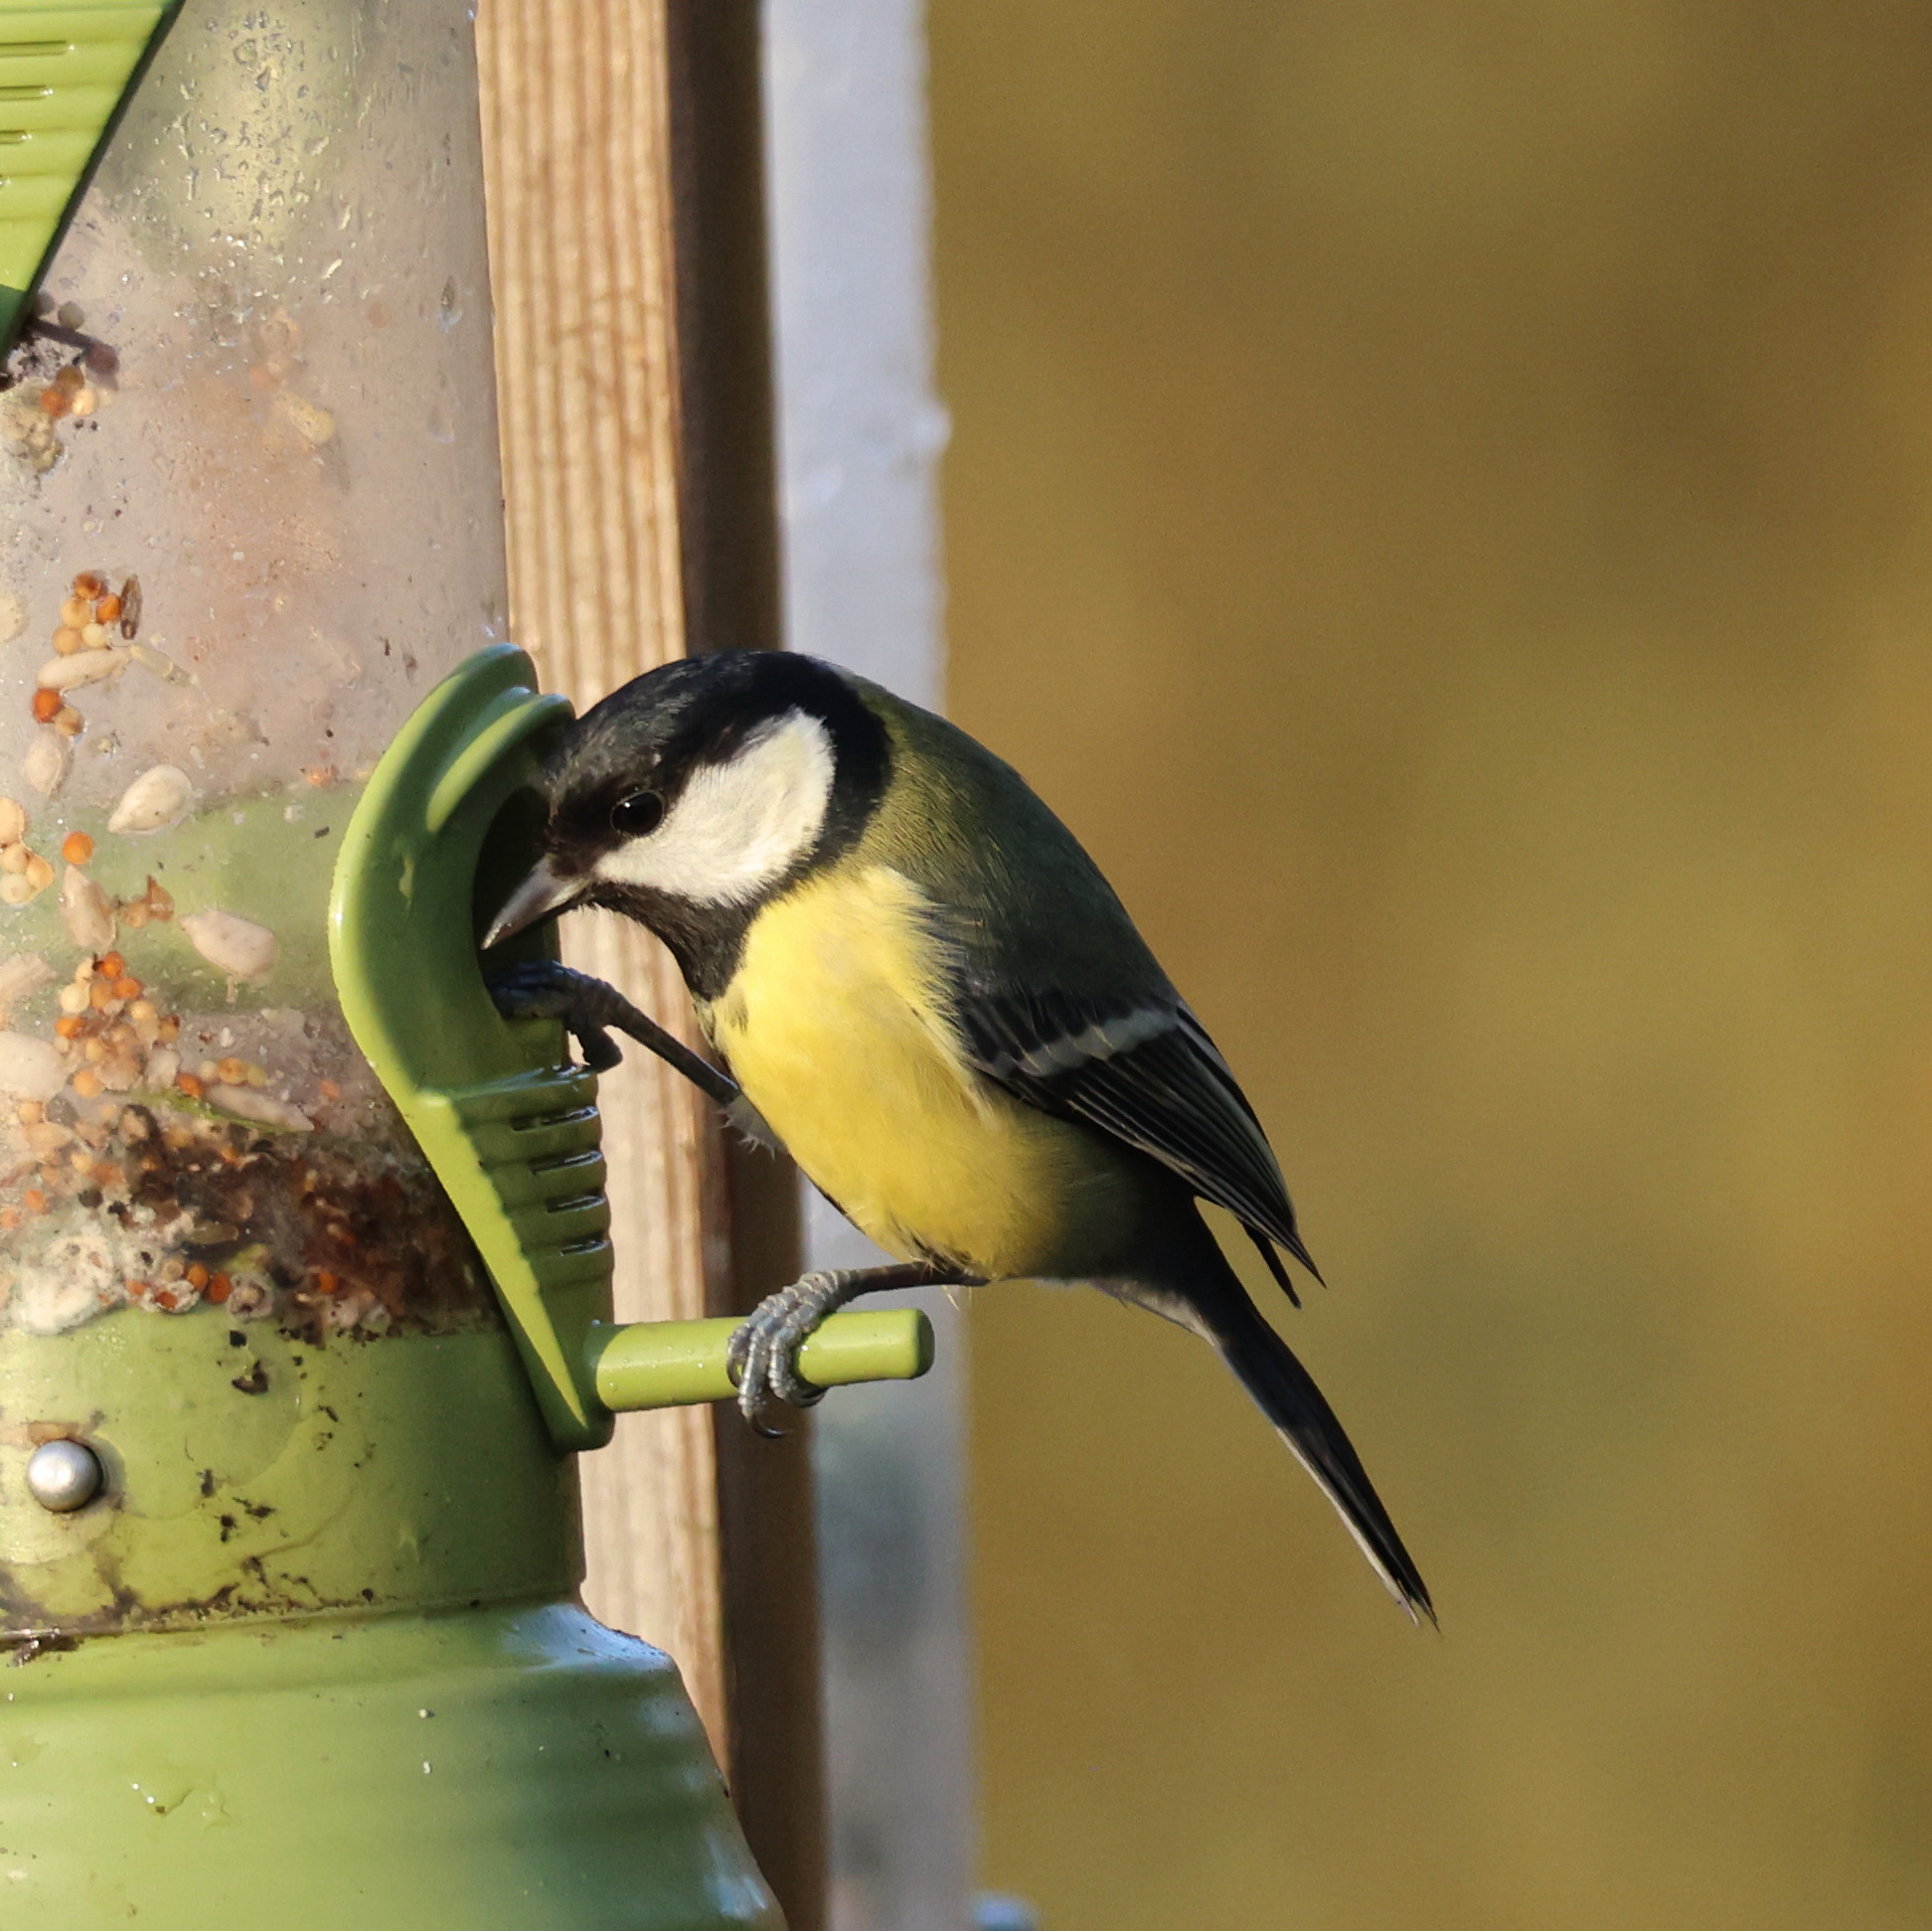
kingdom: Animalia
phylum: Chordata
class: Aves
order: Passeriformes
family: Paridae
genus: Parus
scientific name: Parus major
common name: Great tit
